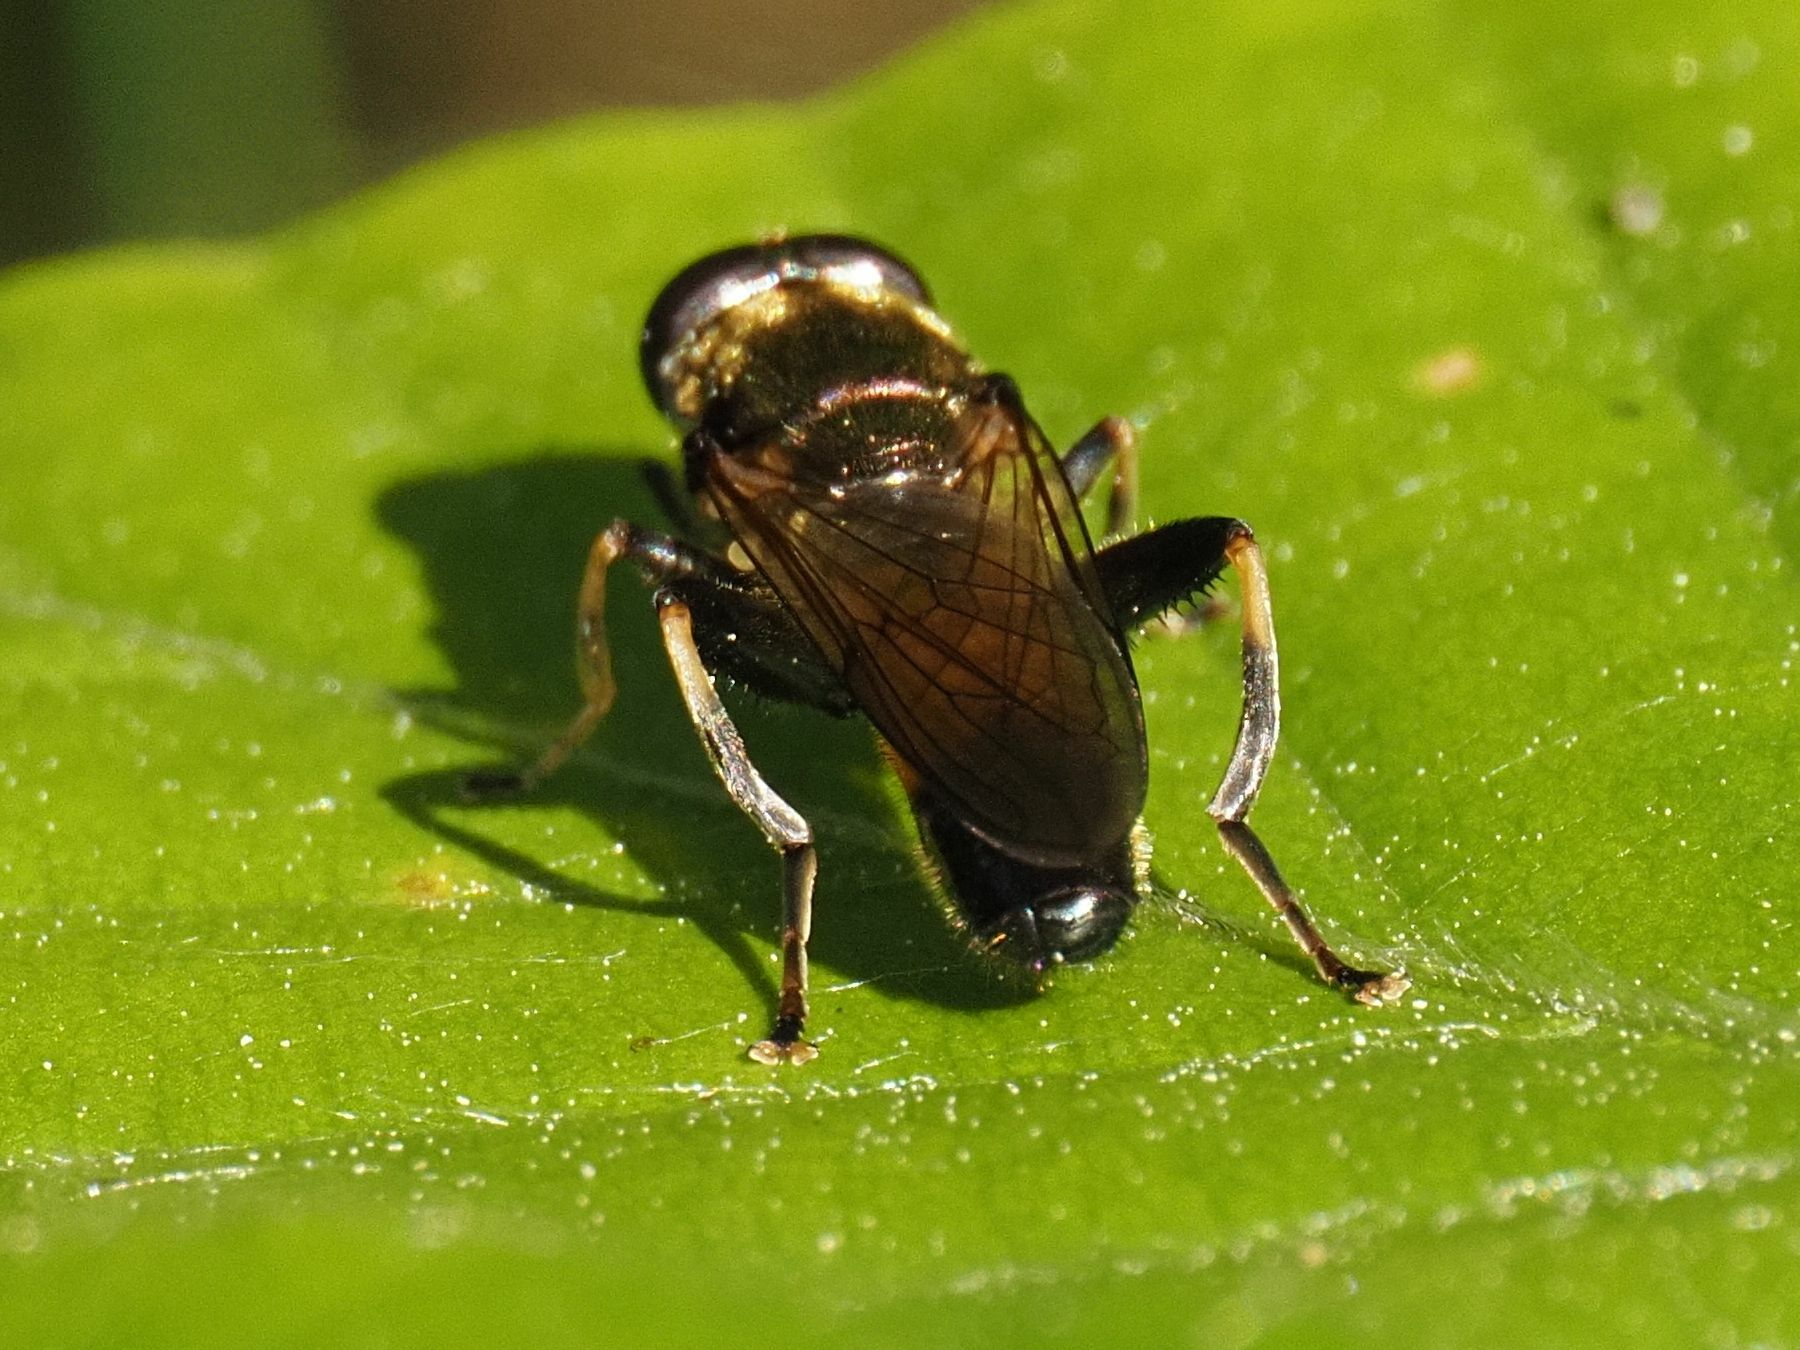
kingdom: Animalia
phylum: Arthropoda
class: Insecta
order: Diptera
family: Syrphidae
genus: Xylota
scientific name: Xylota segnis
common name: Brown-toed forest fly
